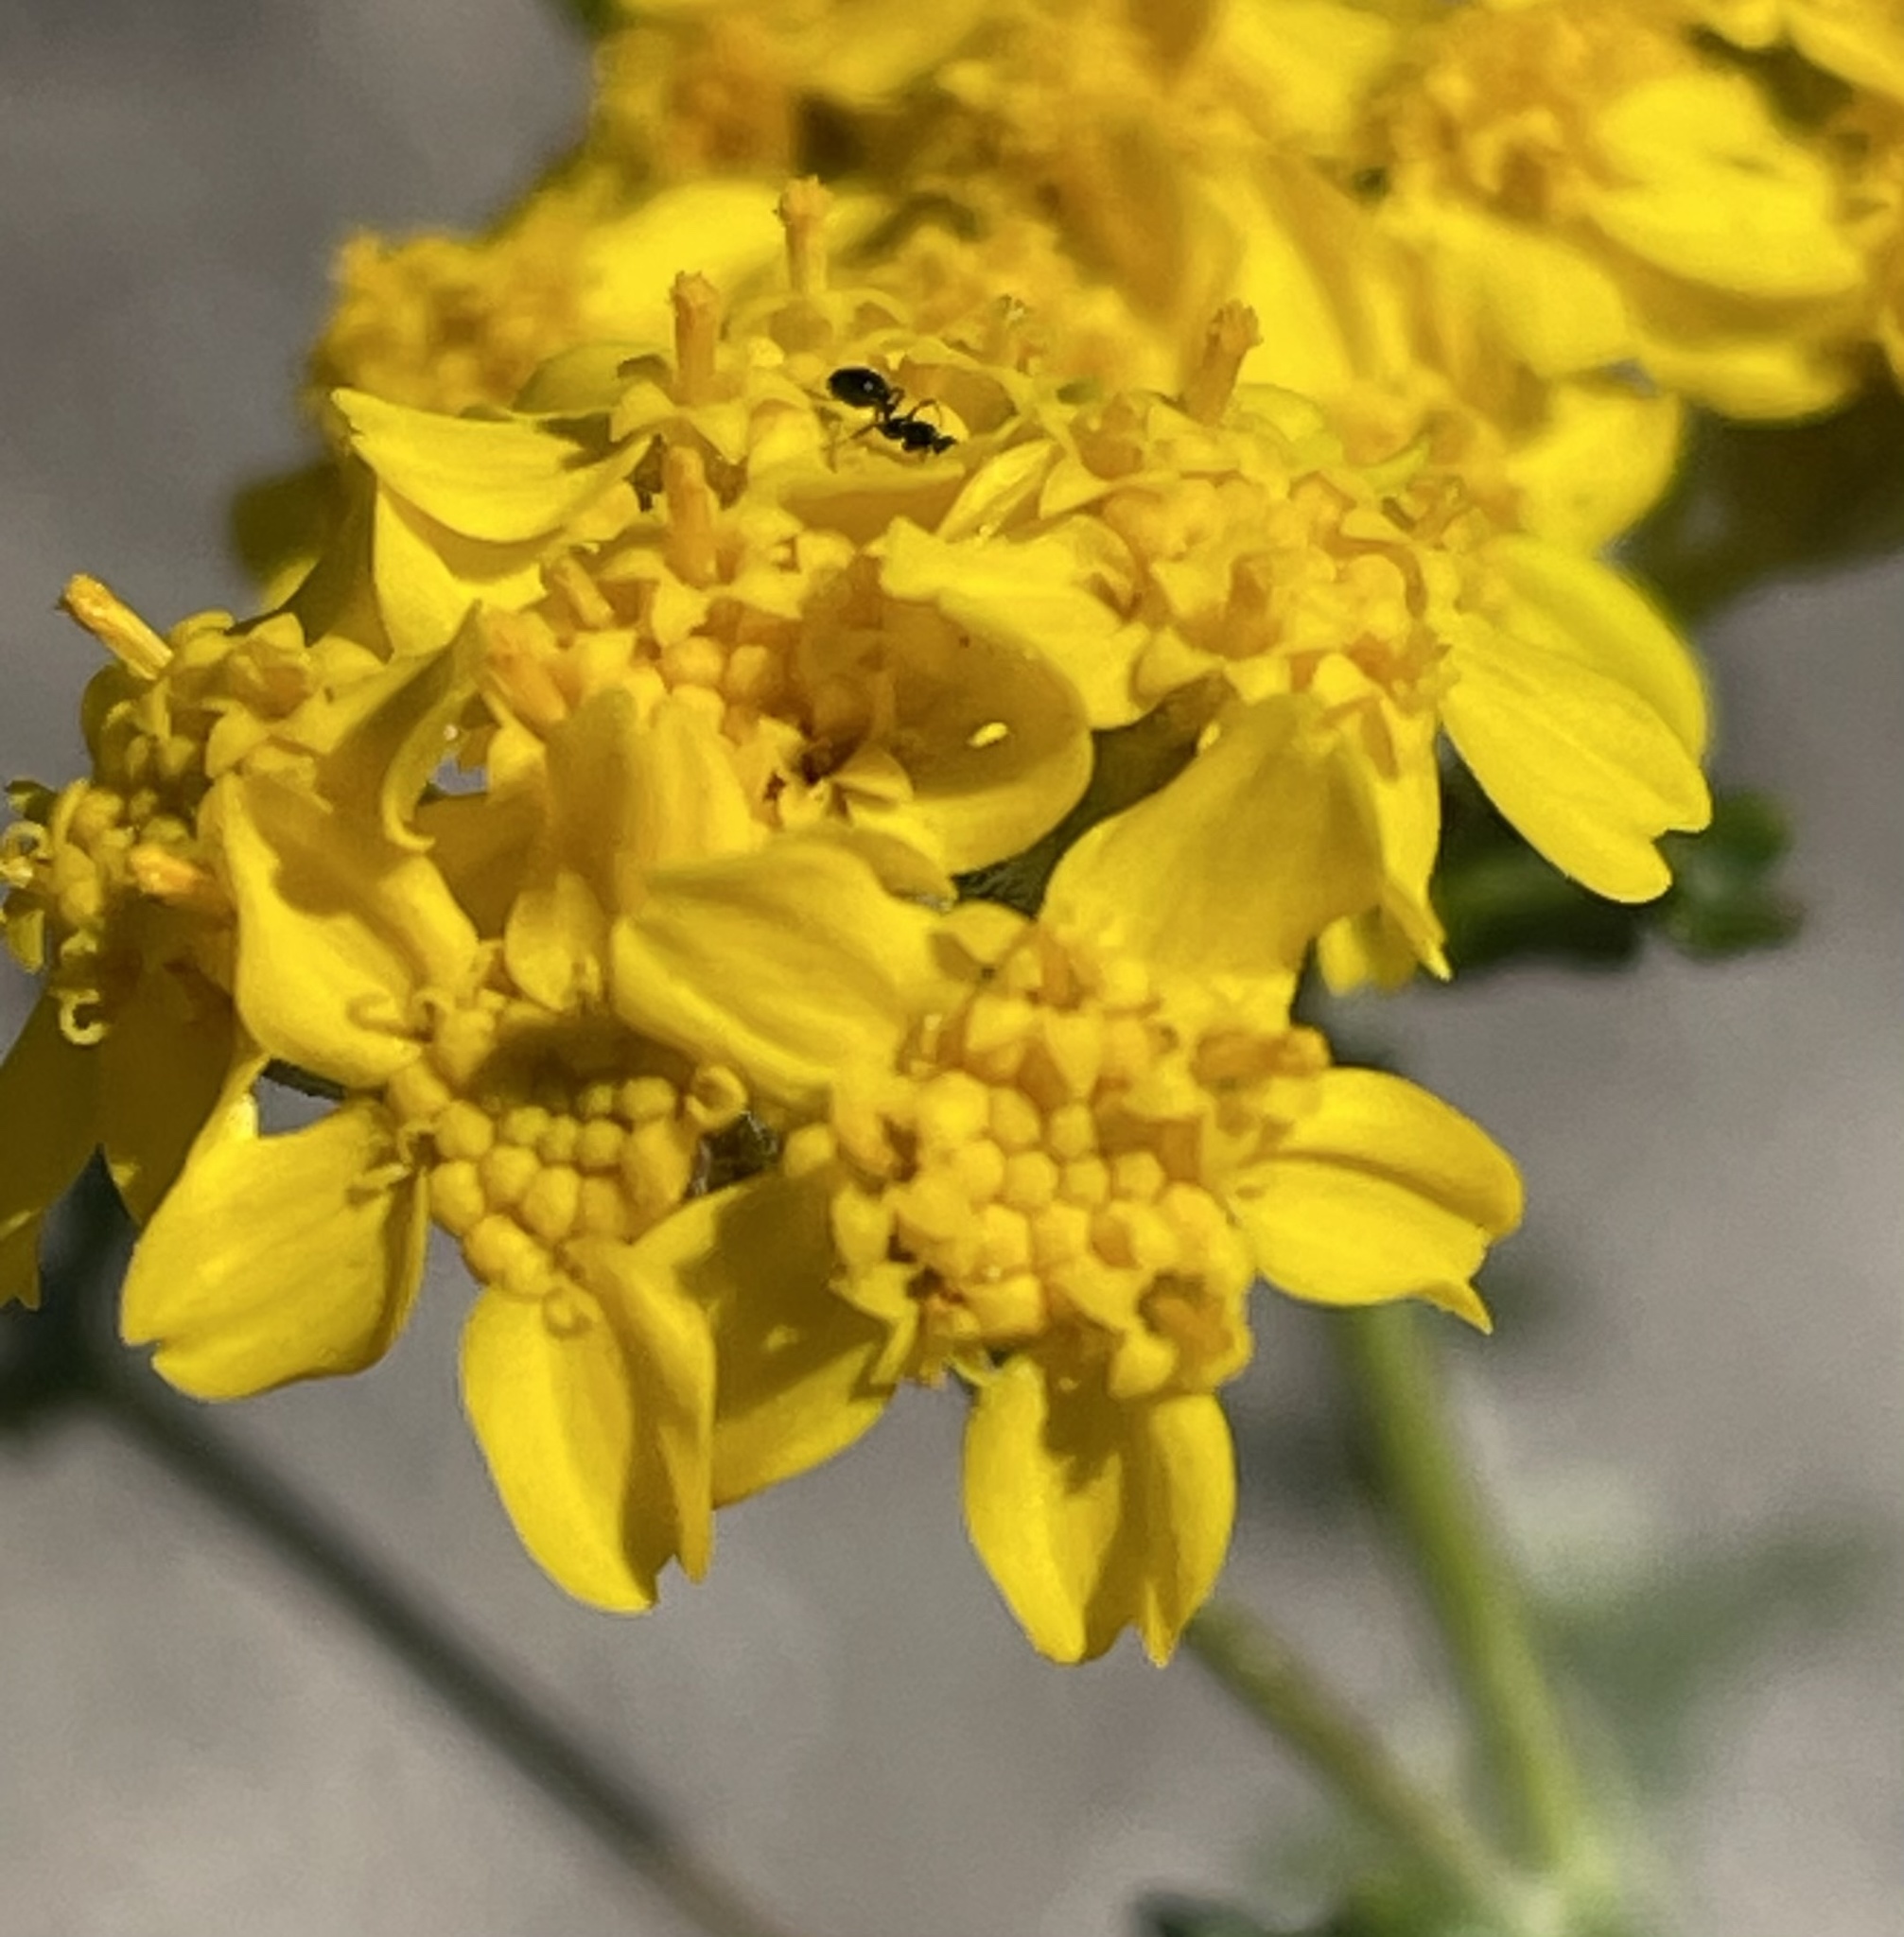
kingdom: Plantae
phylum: Tracheophyta
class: Magnoliopsida
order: Asterales
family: Asteraceae
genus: Eriophyllum
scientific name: Eriophyllum confertiflorum
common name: Golden-yarrow
